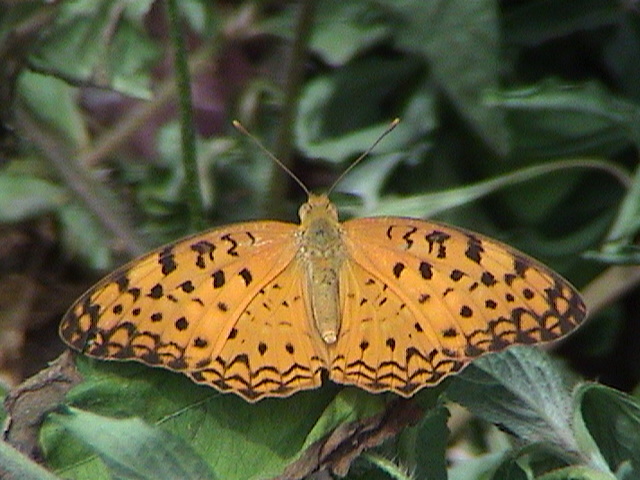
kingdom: Animalia
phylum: Arthropoda
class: Insecta
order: Lepidoptera
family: Nymphalidae
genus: Phalanta
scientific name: Phalanta phalantha
